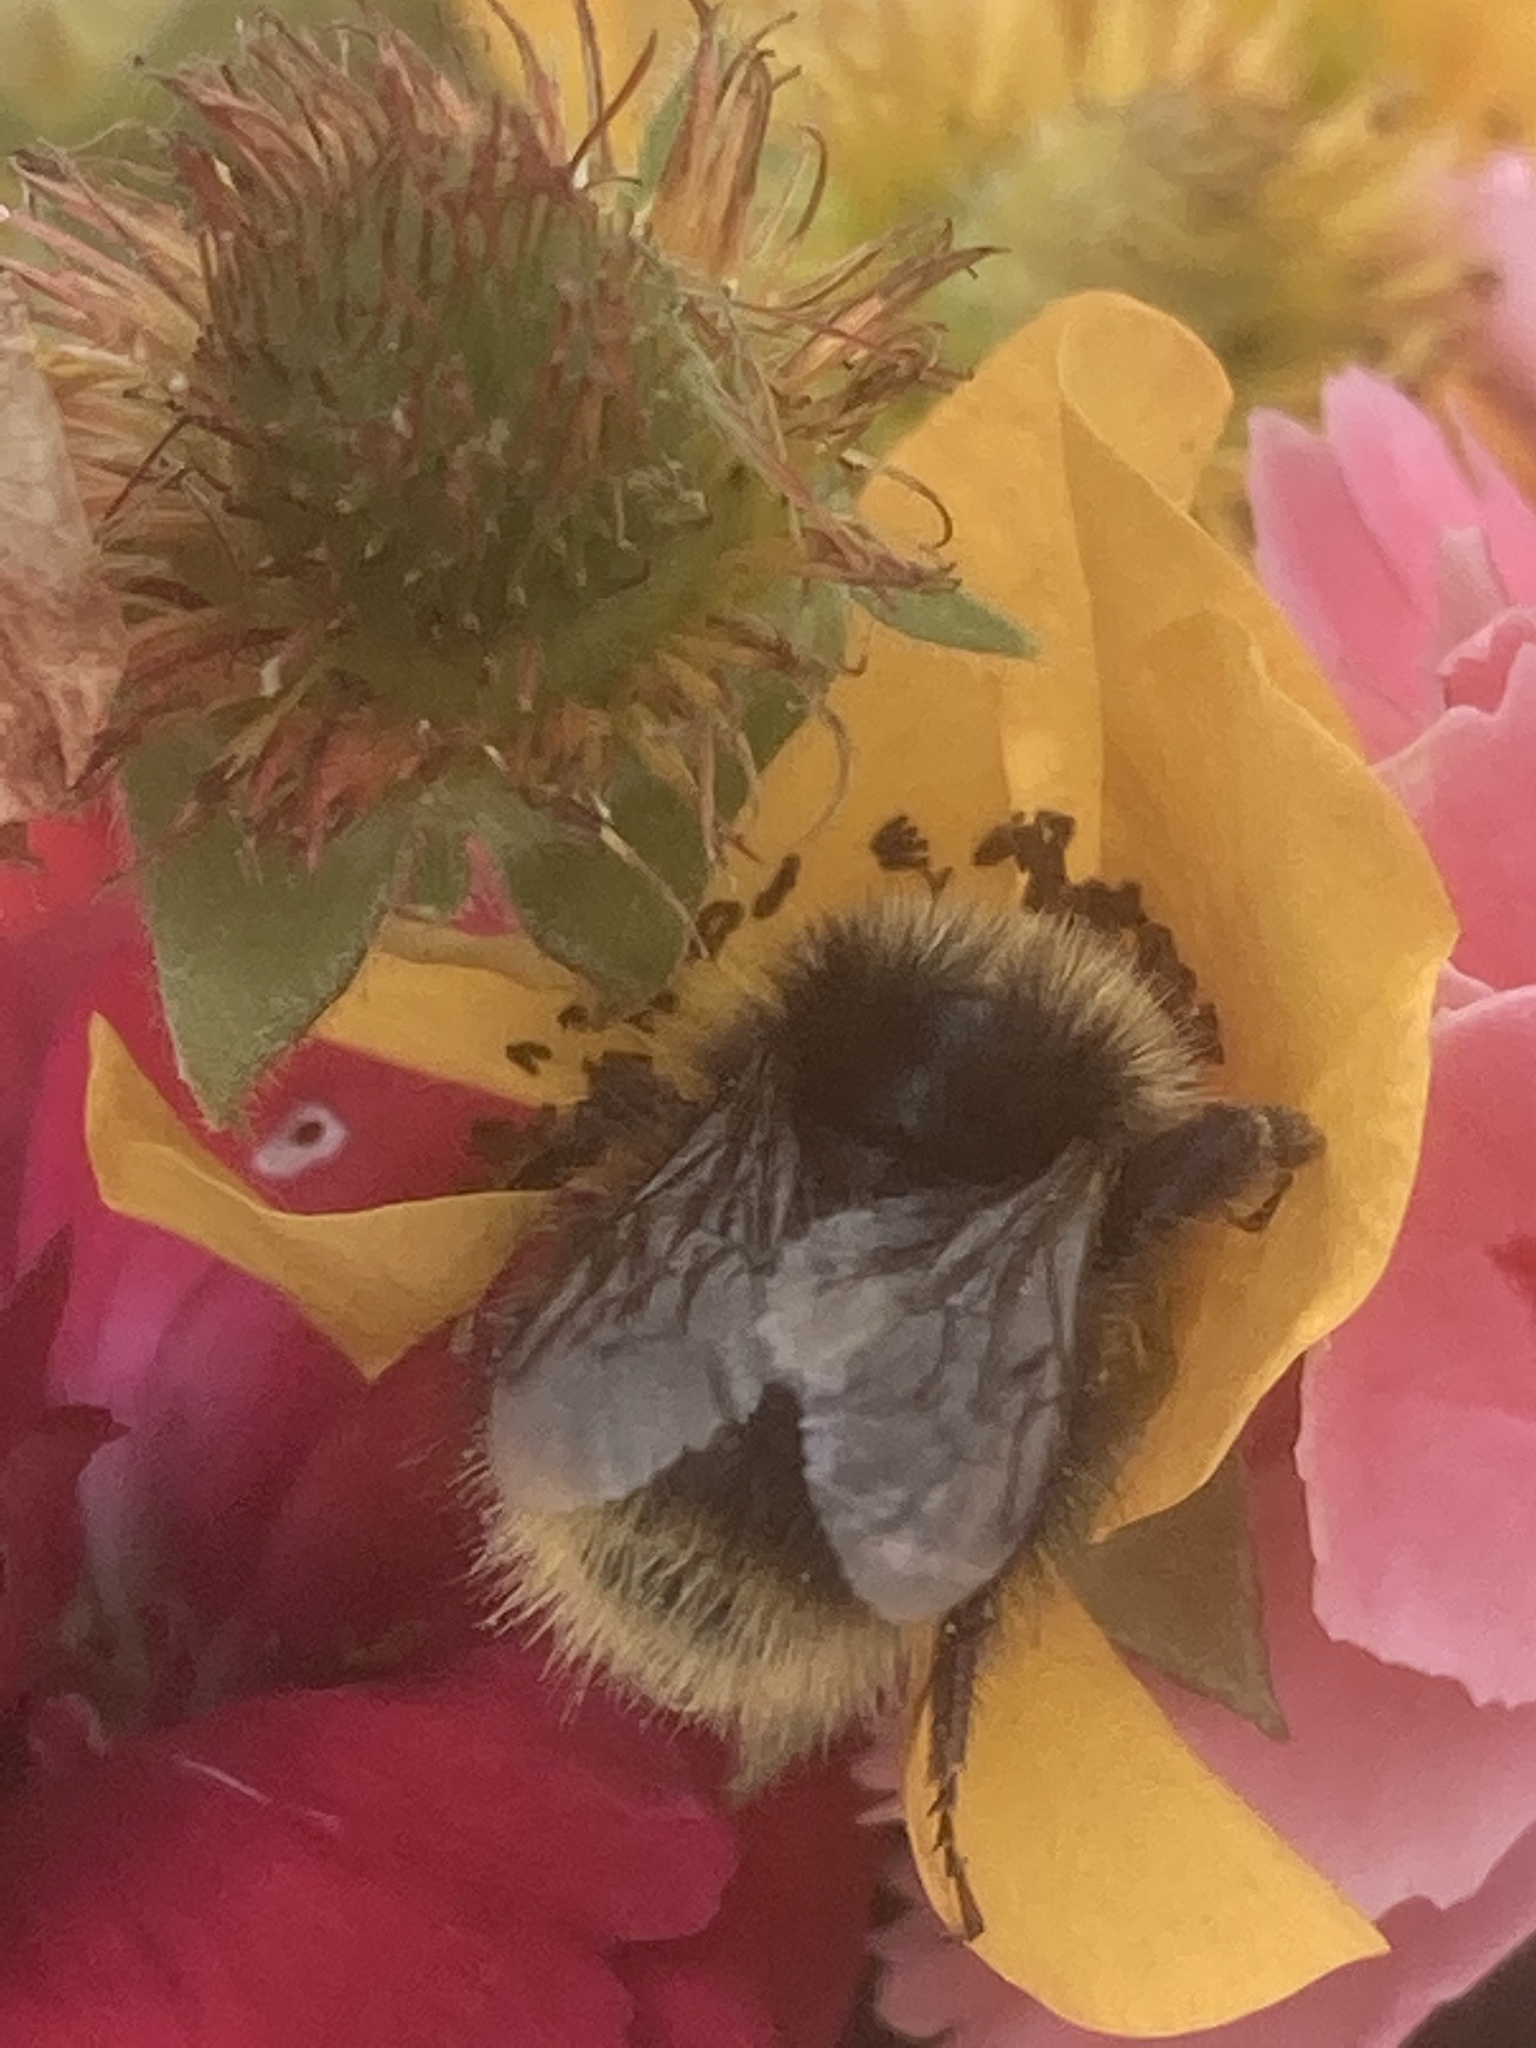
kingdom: Animalia
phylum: Arthropoda
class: Insecta
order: Hymenoptera
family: Apidae
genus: Bombus
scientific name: Bombus pratorum
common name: Early humble-bee
